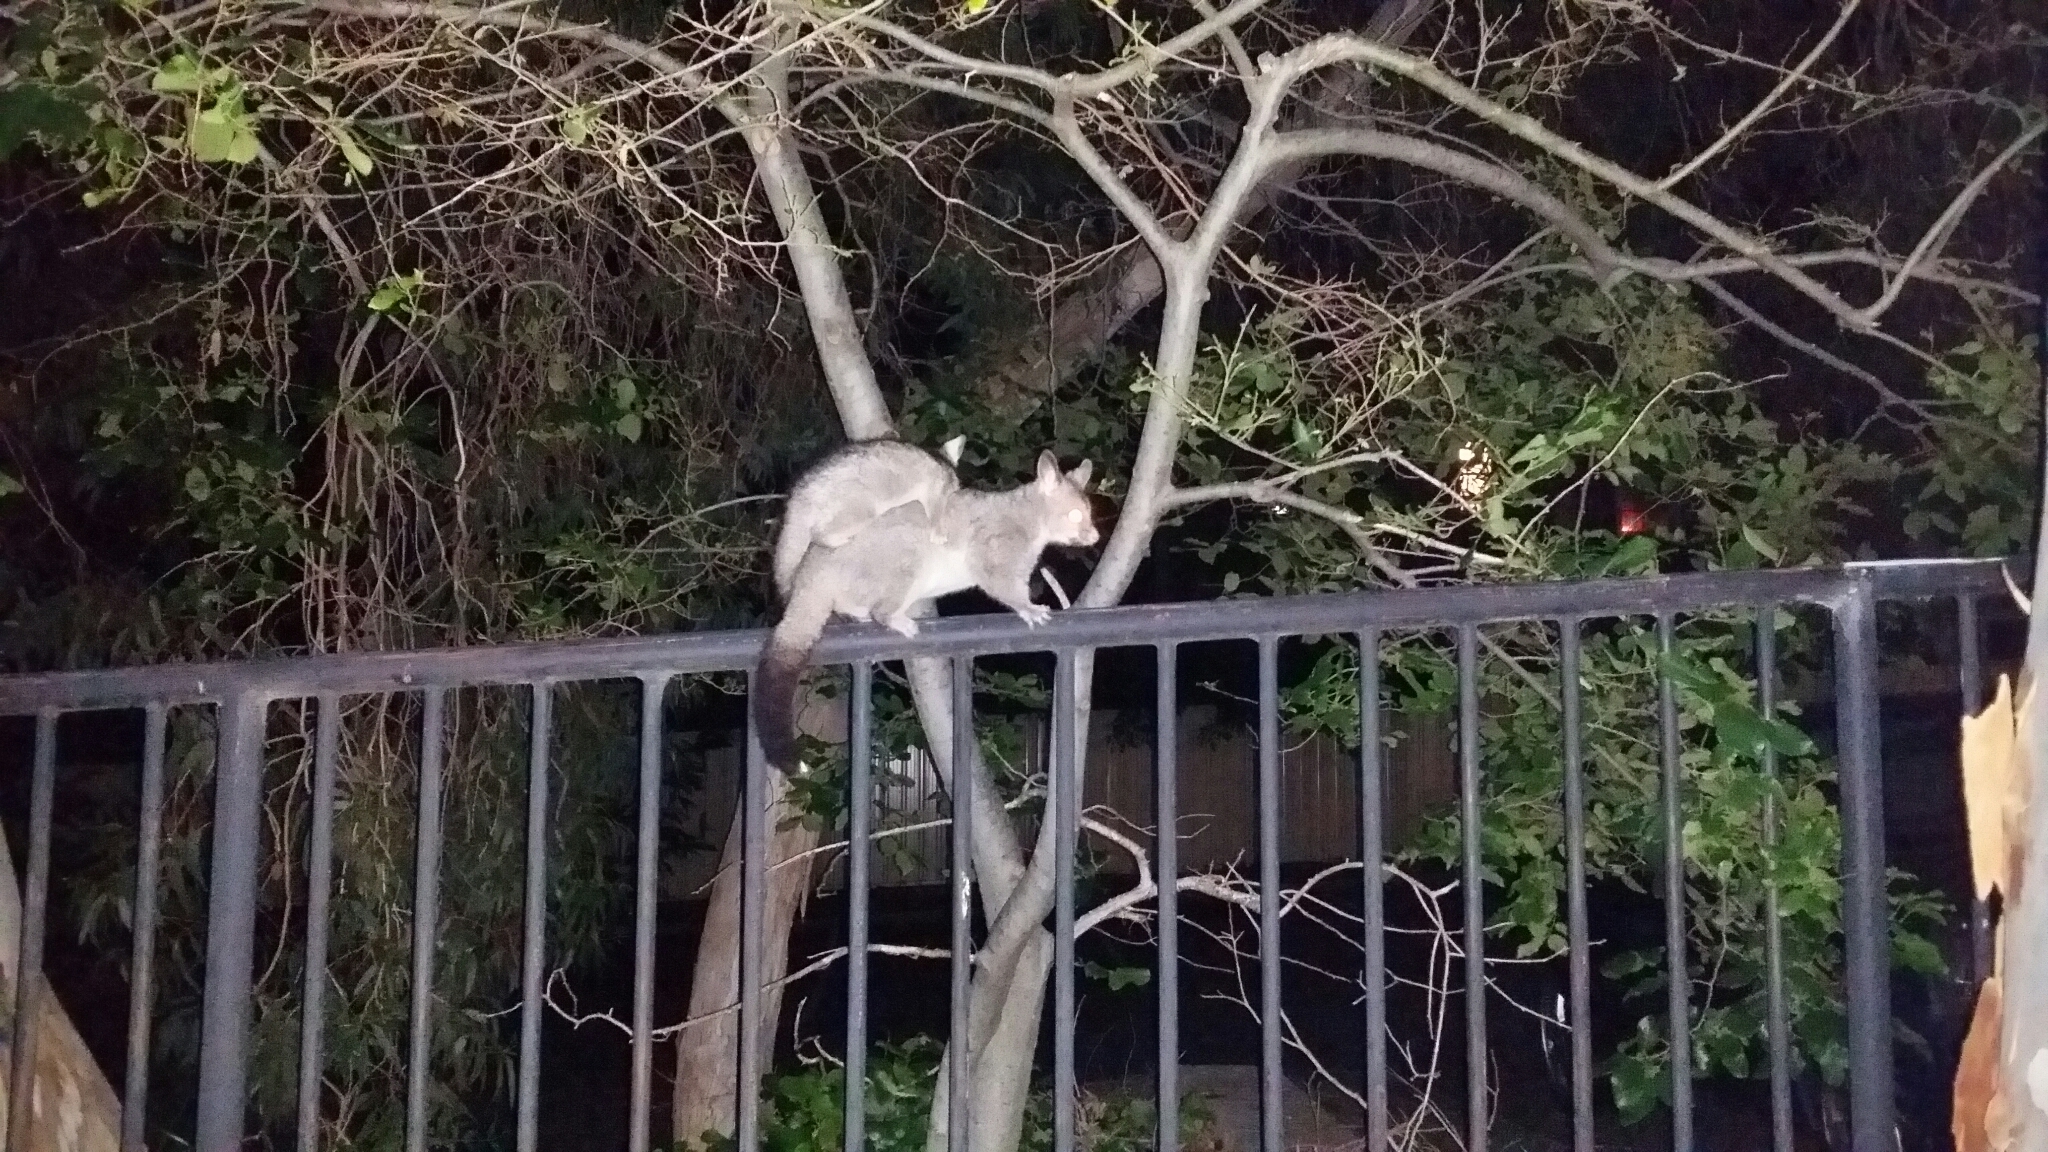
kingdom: Animalia
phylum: Chordata
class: Mammalia
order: Diprotodontia
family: Phalangeridae
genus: Trichosurus
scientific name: Trichosurus vulpecula
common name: Common brushtail
